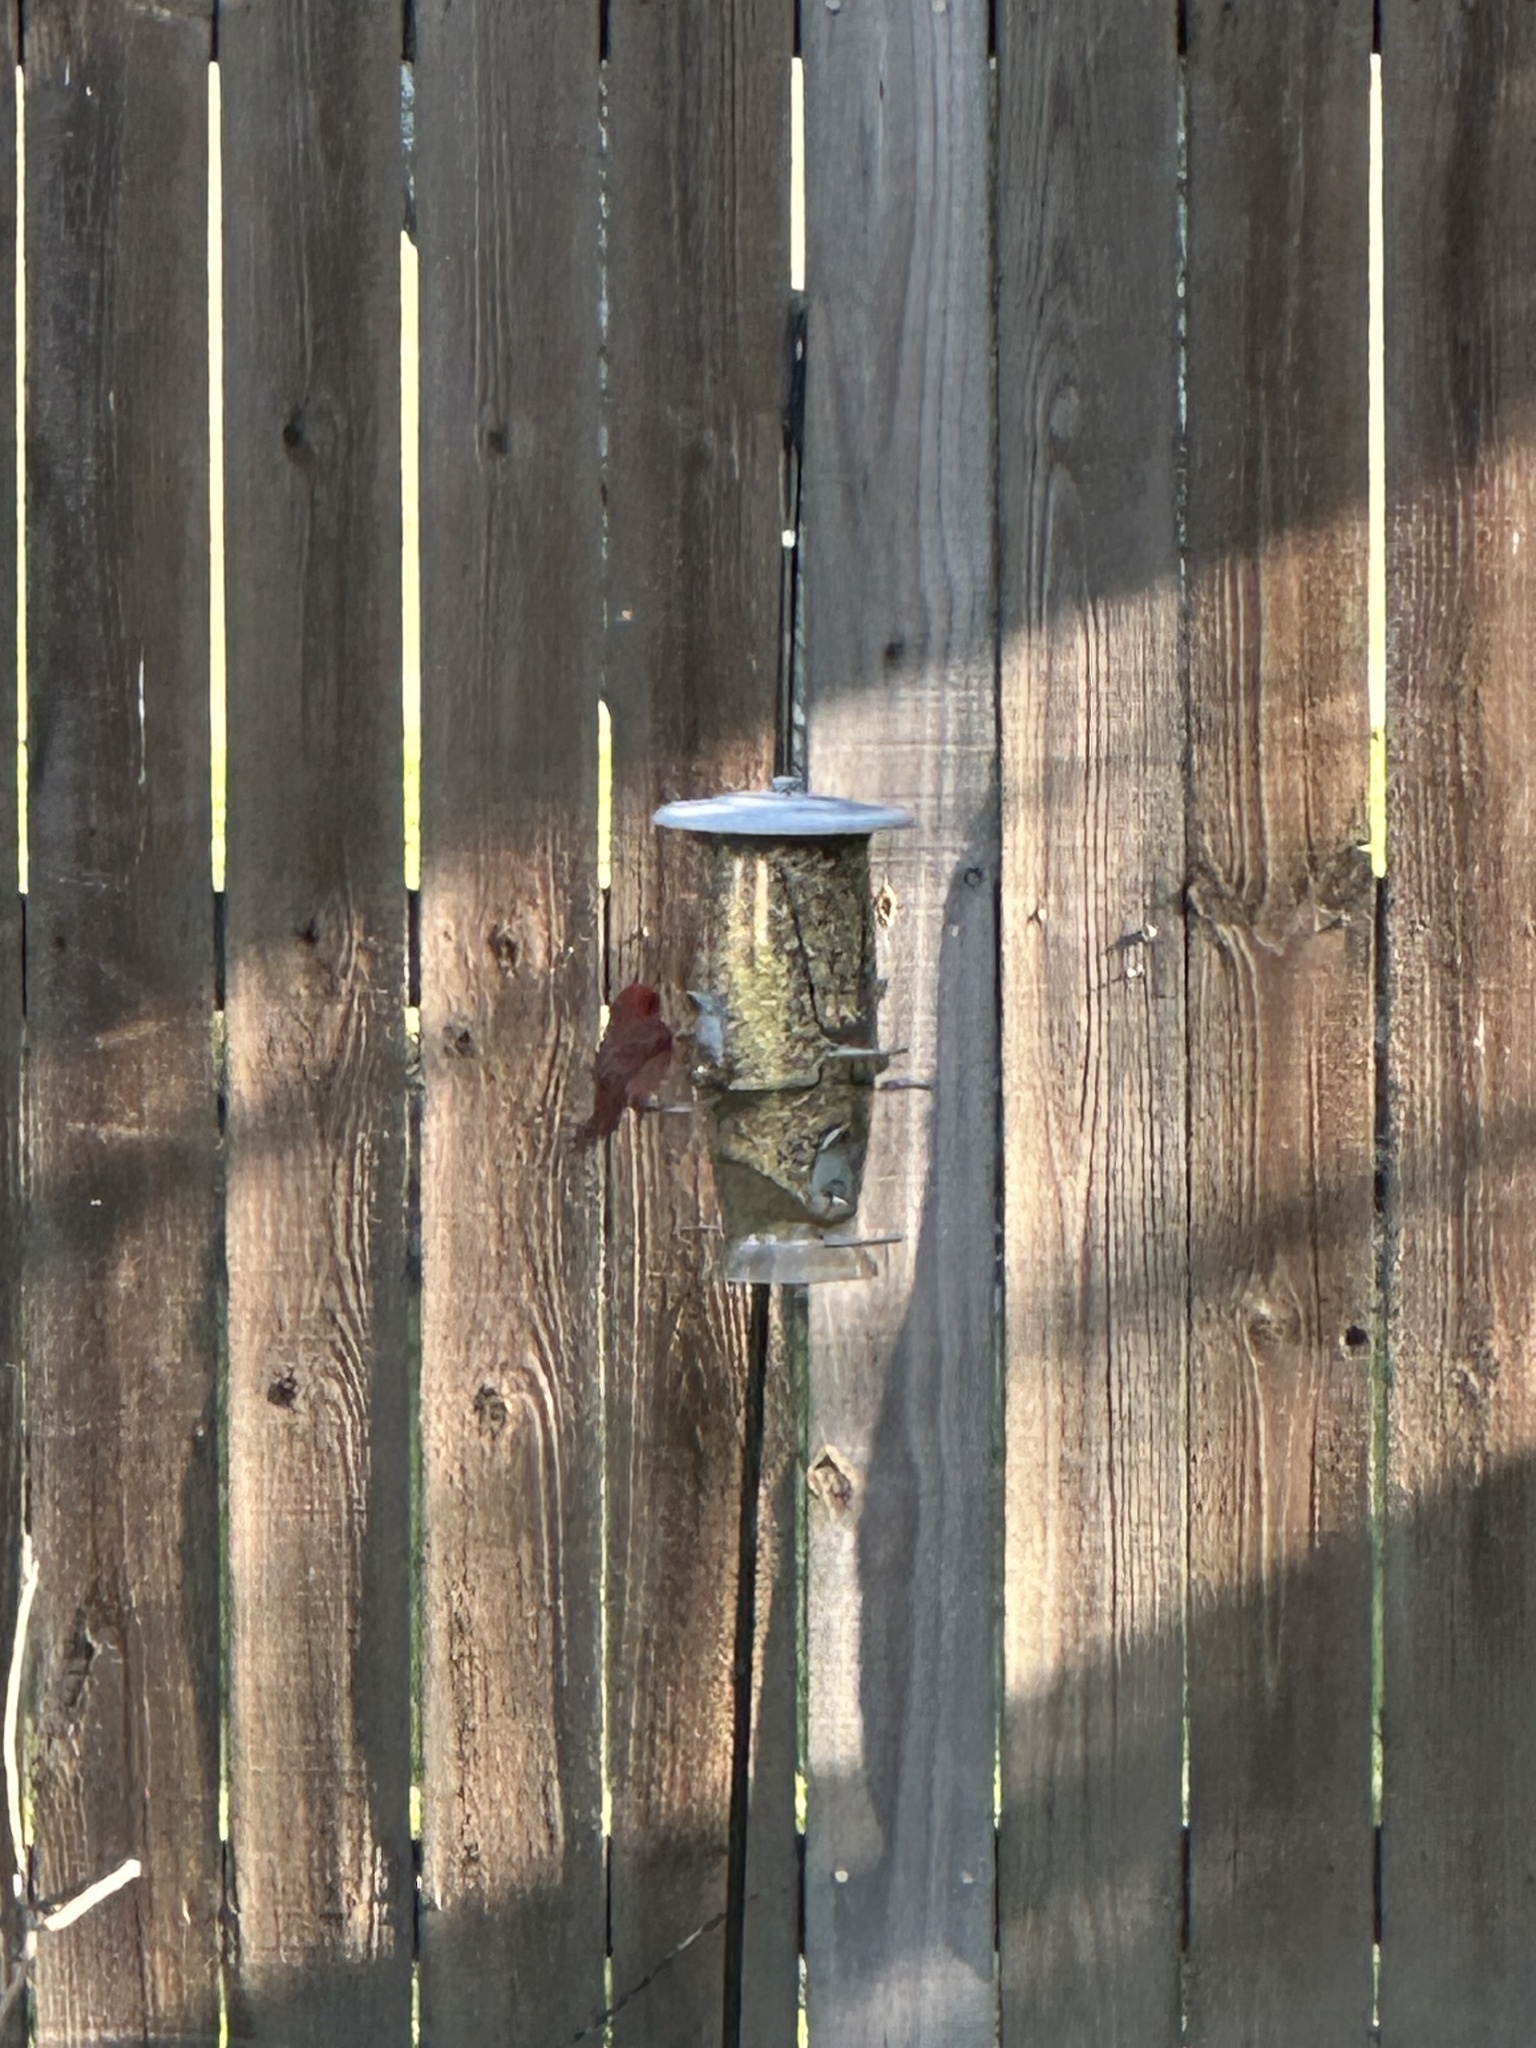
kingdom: Animalia
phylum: Chordata
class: Aves
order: Passeriformes
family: Cardinalidae
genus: Cardinalis
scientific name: Cardinalis cardinalis
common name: Northern cardinal
